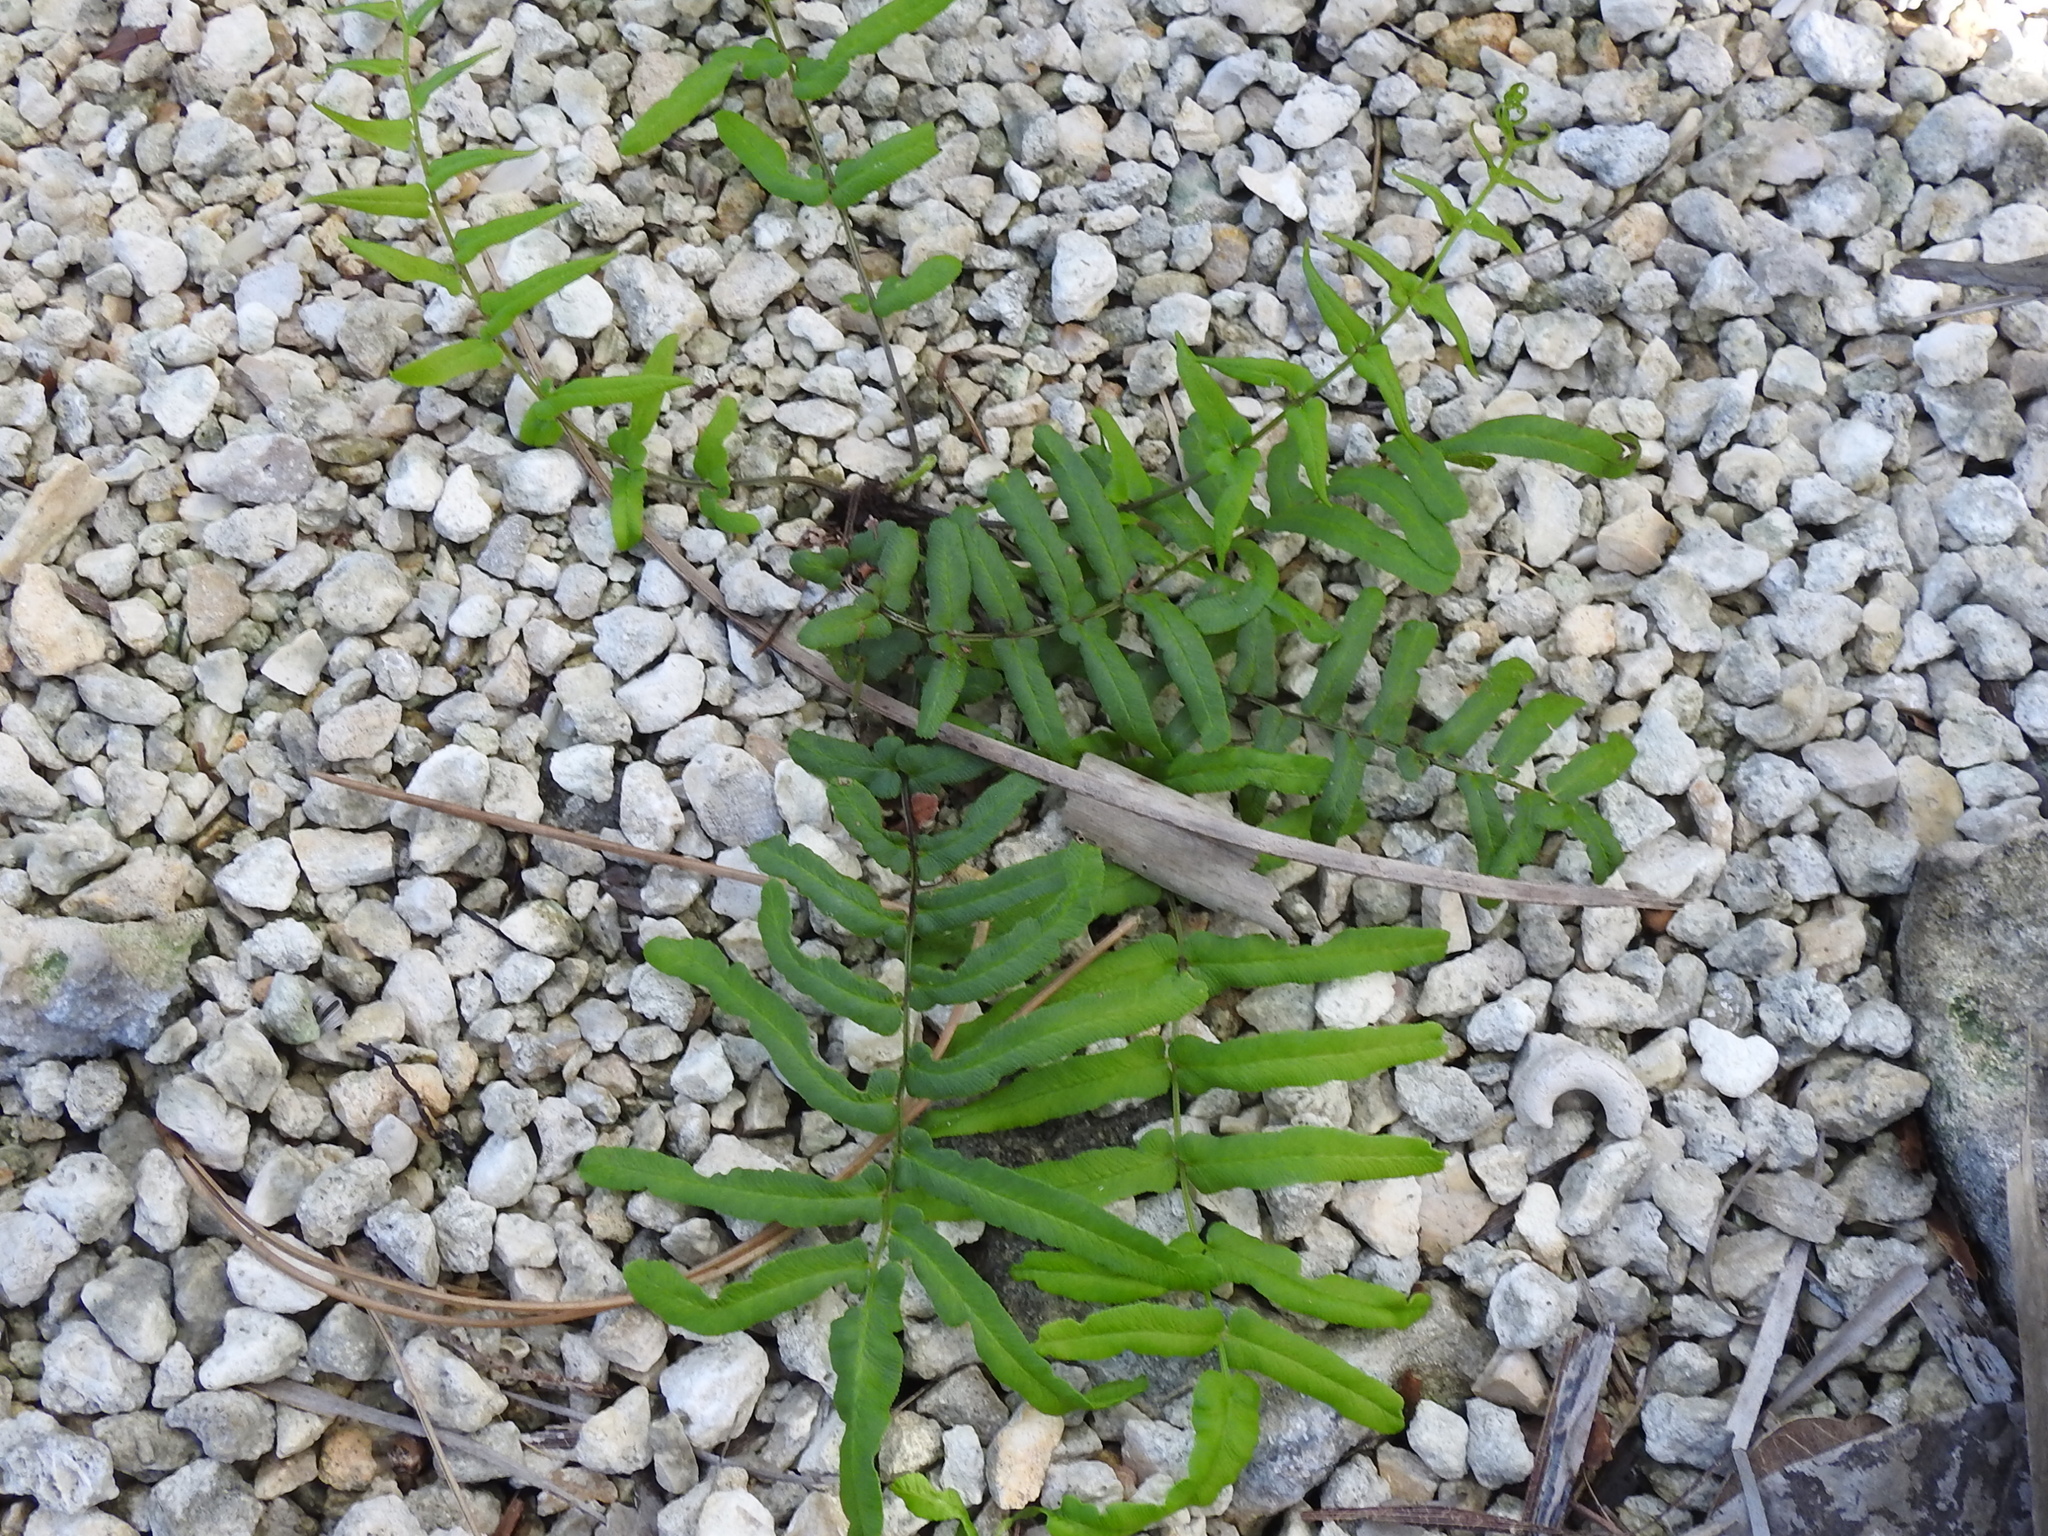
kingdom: Plantae
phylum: Tracheophyta
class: Polypodiopsida
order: Polypodiales
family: Pteridaceae
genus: Pteris
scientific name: Pteris bahamensis
